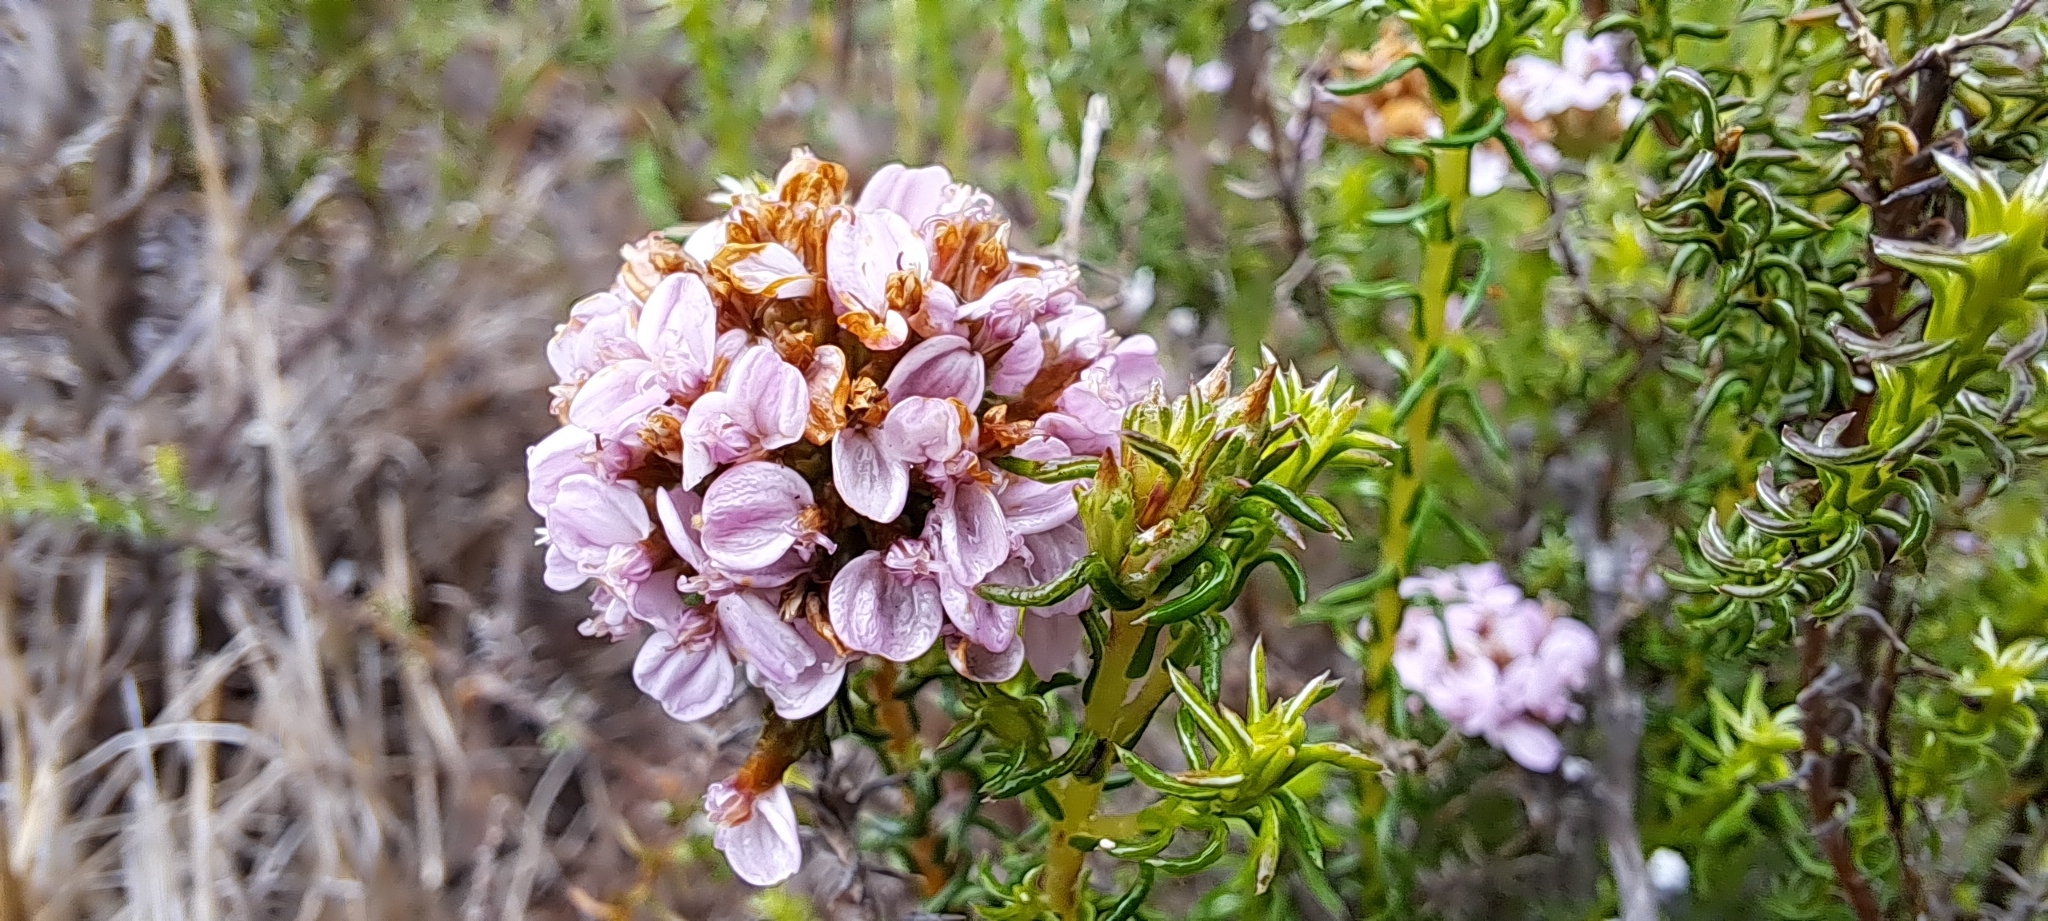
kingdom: Plantae
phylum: Tracheophyta
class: Magnoliopsida
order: Asterales
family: Asteraceae
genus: Disparago
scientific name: Disparago ericoides
